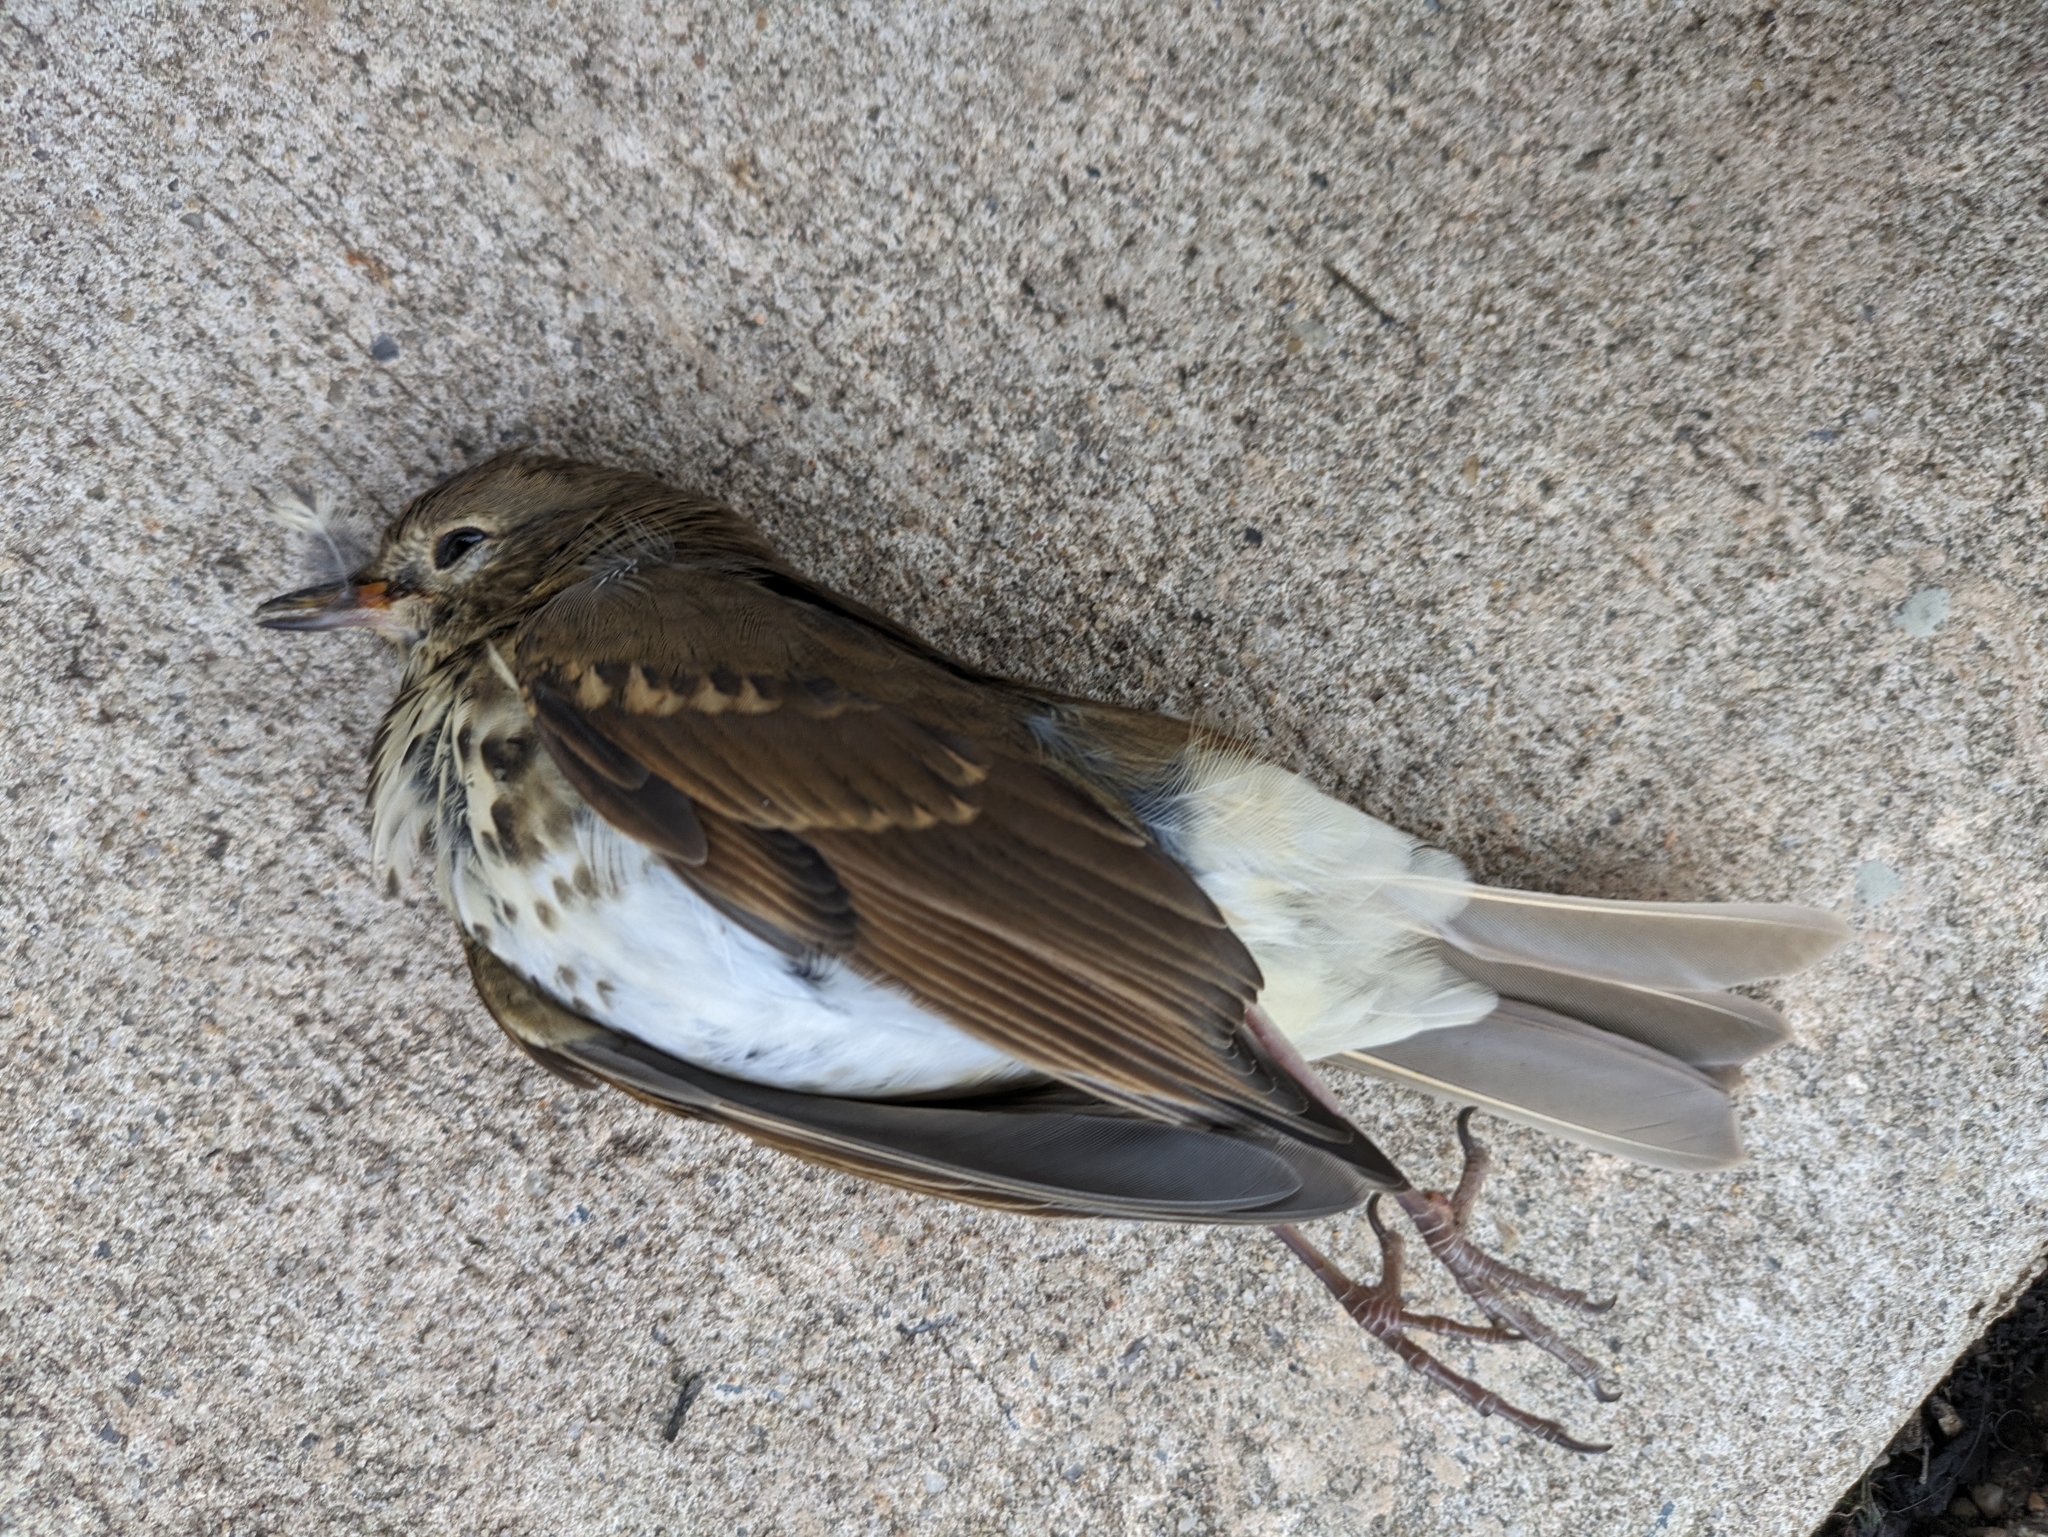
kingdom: Animalia
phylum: Chordata
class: Aves
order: Passeriformes
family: Turdidae
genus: Catharus
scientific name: Catharus guttatus
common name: Hermit thrush
